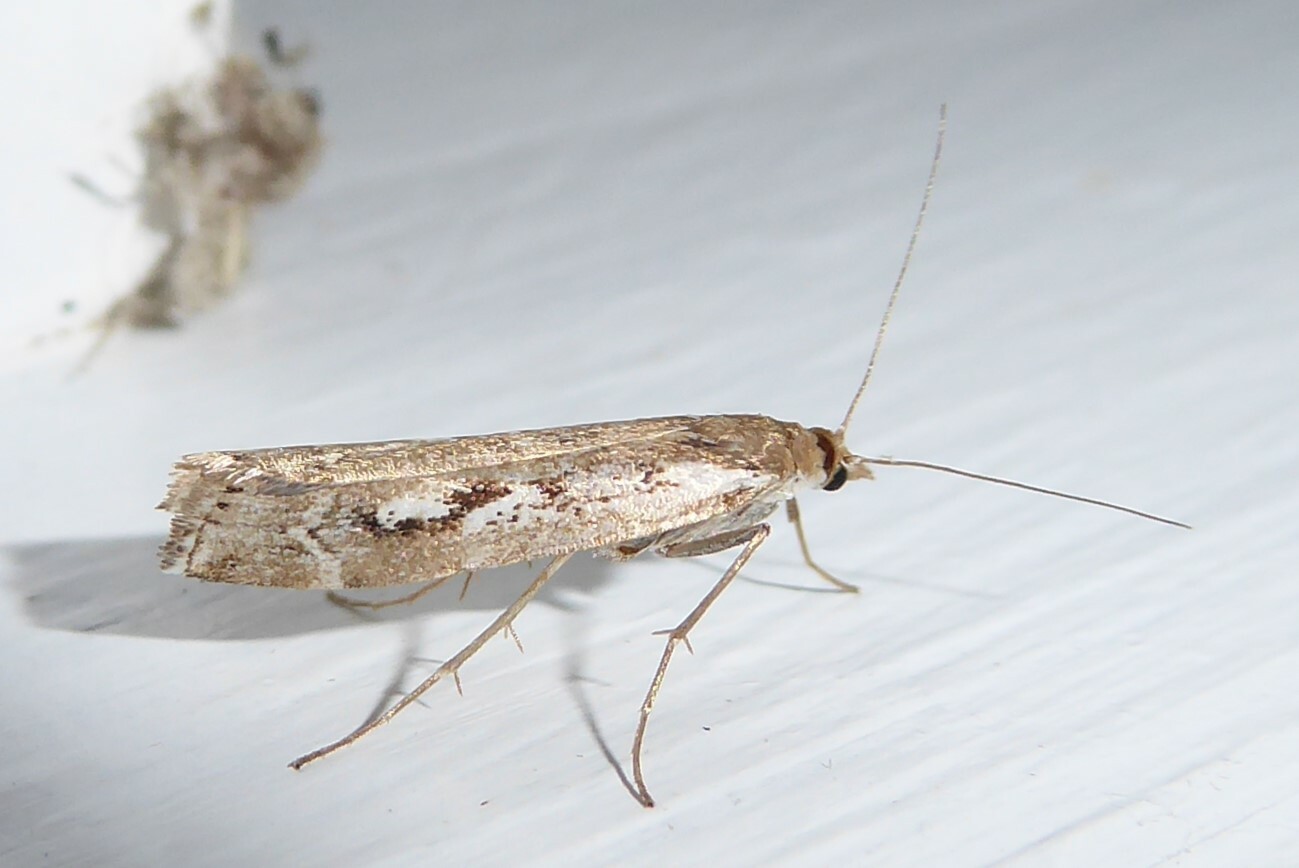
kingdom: Animalia
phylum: Arthropoda
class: Insecta
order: Lepidoptera
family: Crambidae
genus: Orocrambus
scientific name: Orocrambus vulgaris
